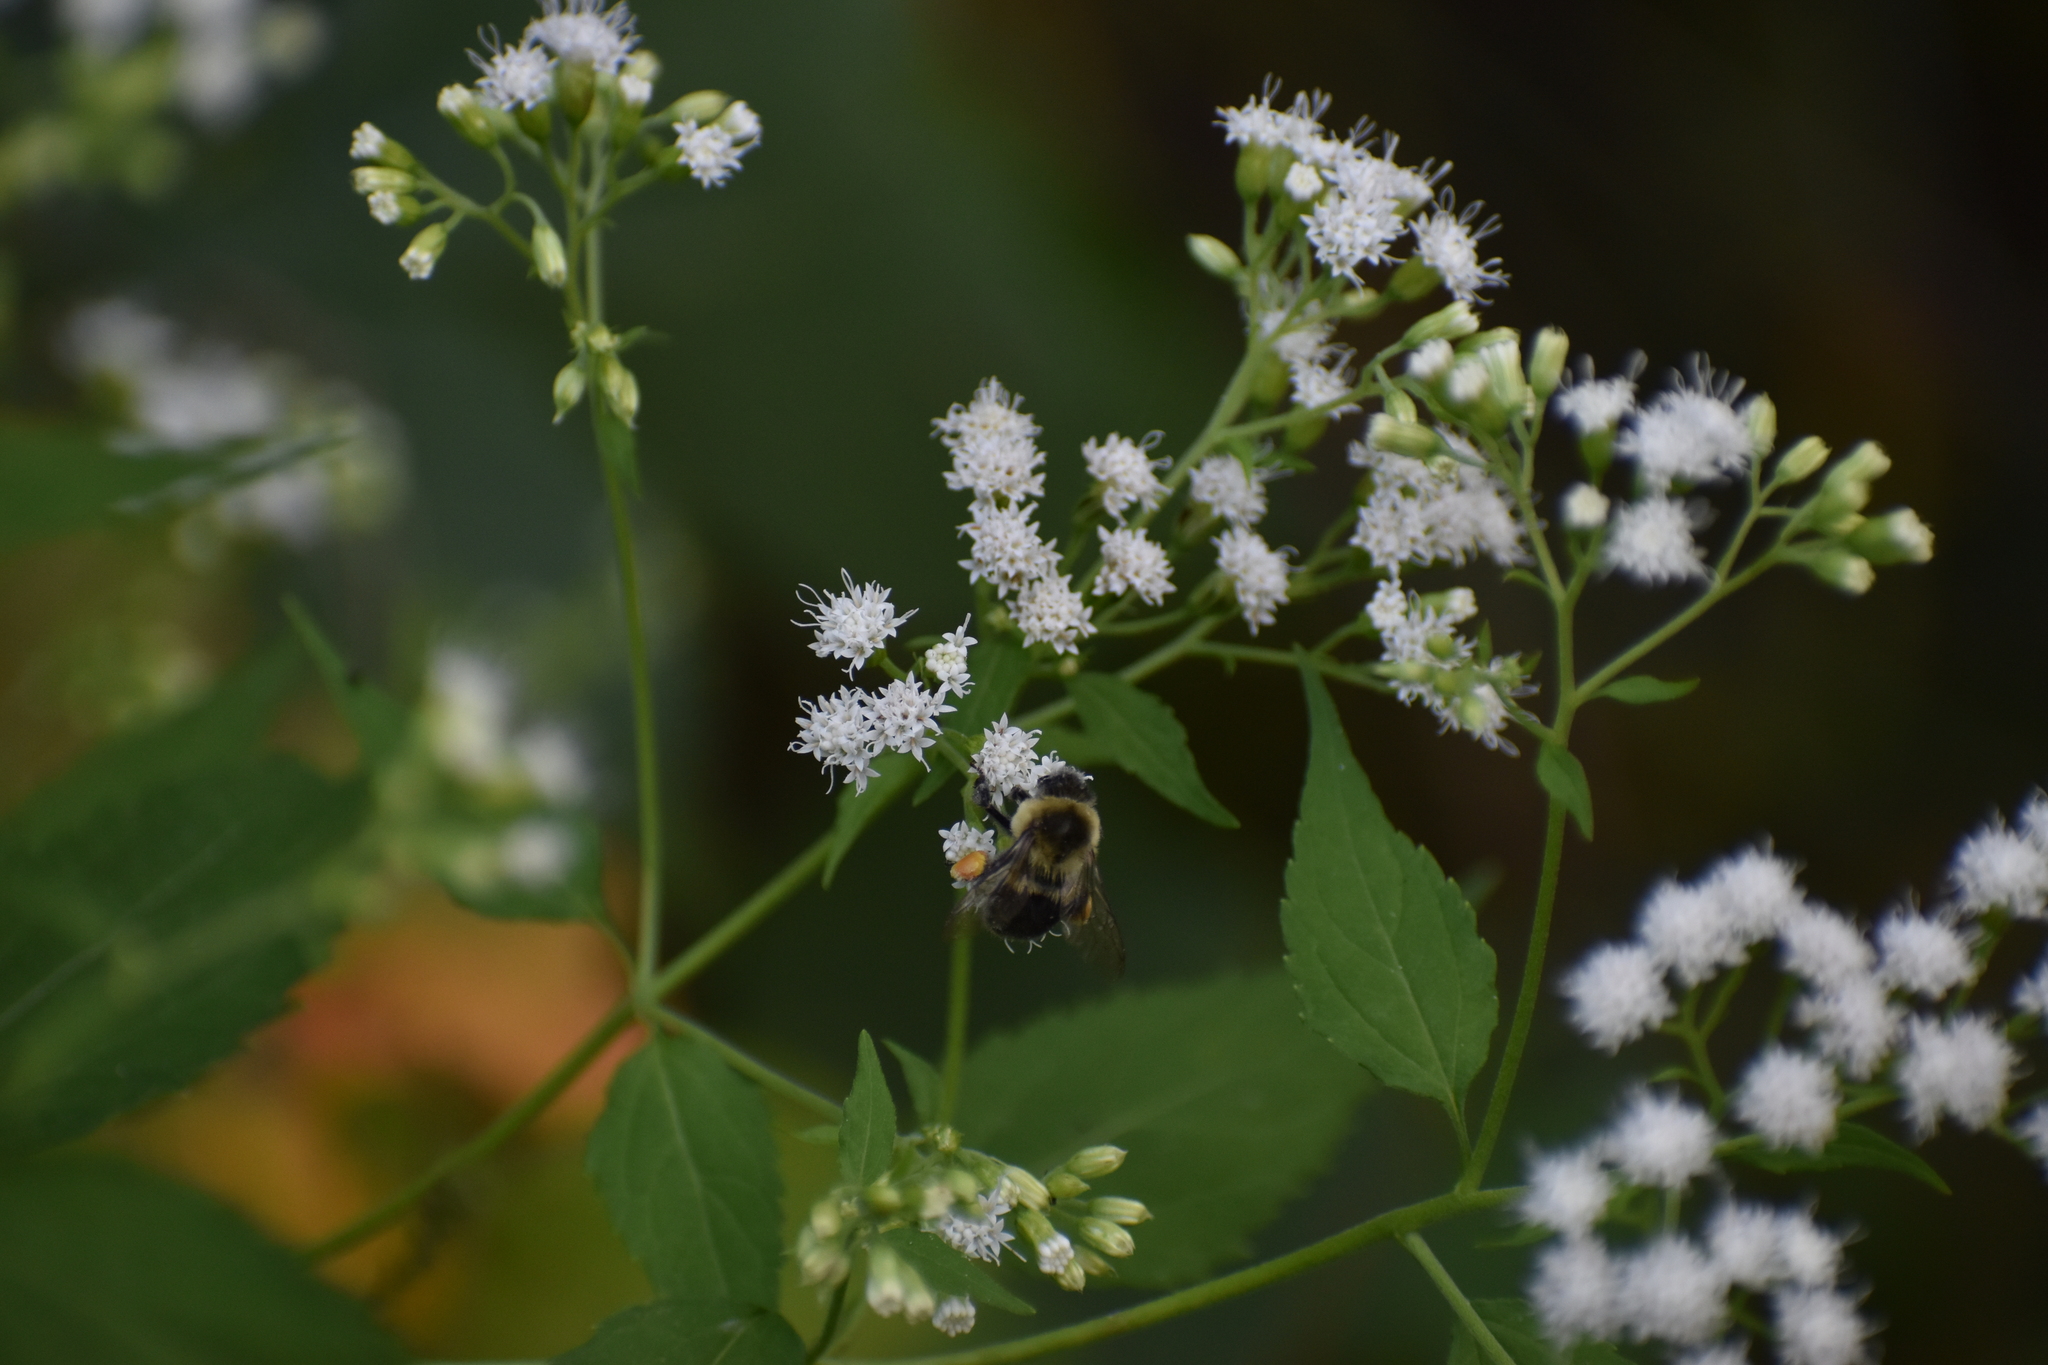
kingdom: Animalia
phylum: Arthropoda
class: Insecta
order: Hymenoptera
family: Apidae
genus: Bombus
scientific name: Bombus impatiens
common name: Common eastern bumble bee
